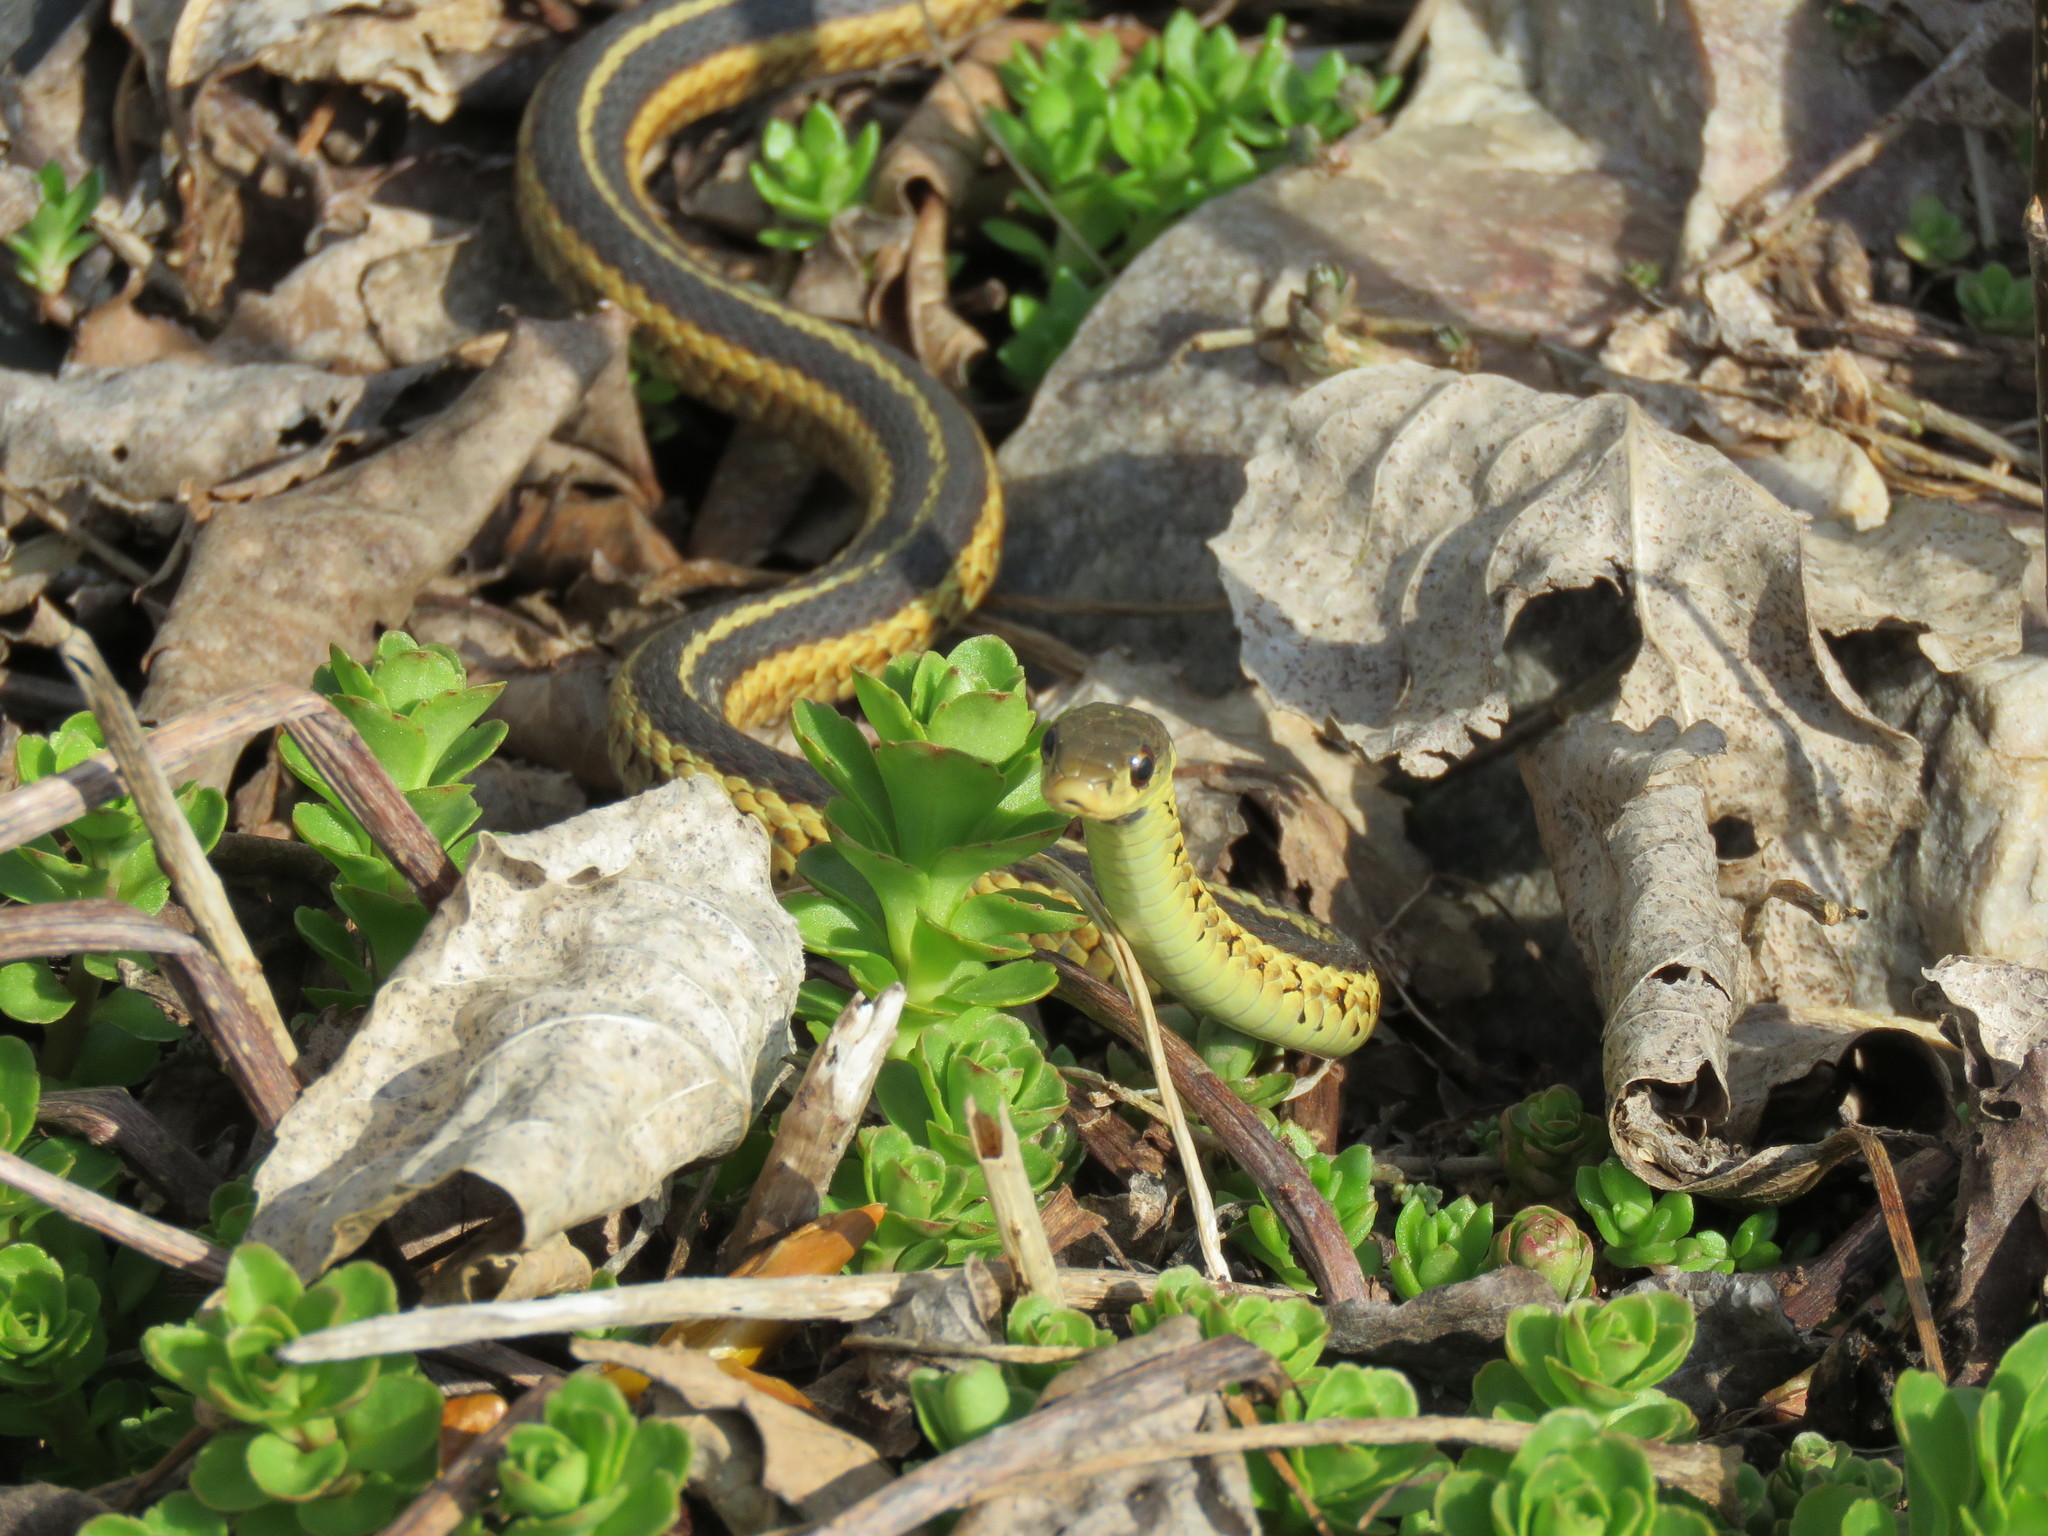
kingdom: Animalia
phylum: Chordata
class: Squamata
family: Colubridae
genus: Thamnophis
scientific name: Thamnophis sirtalis
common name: Common garter snake
